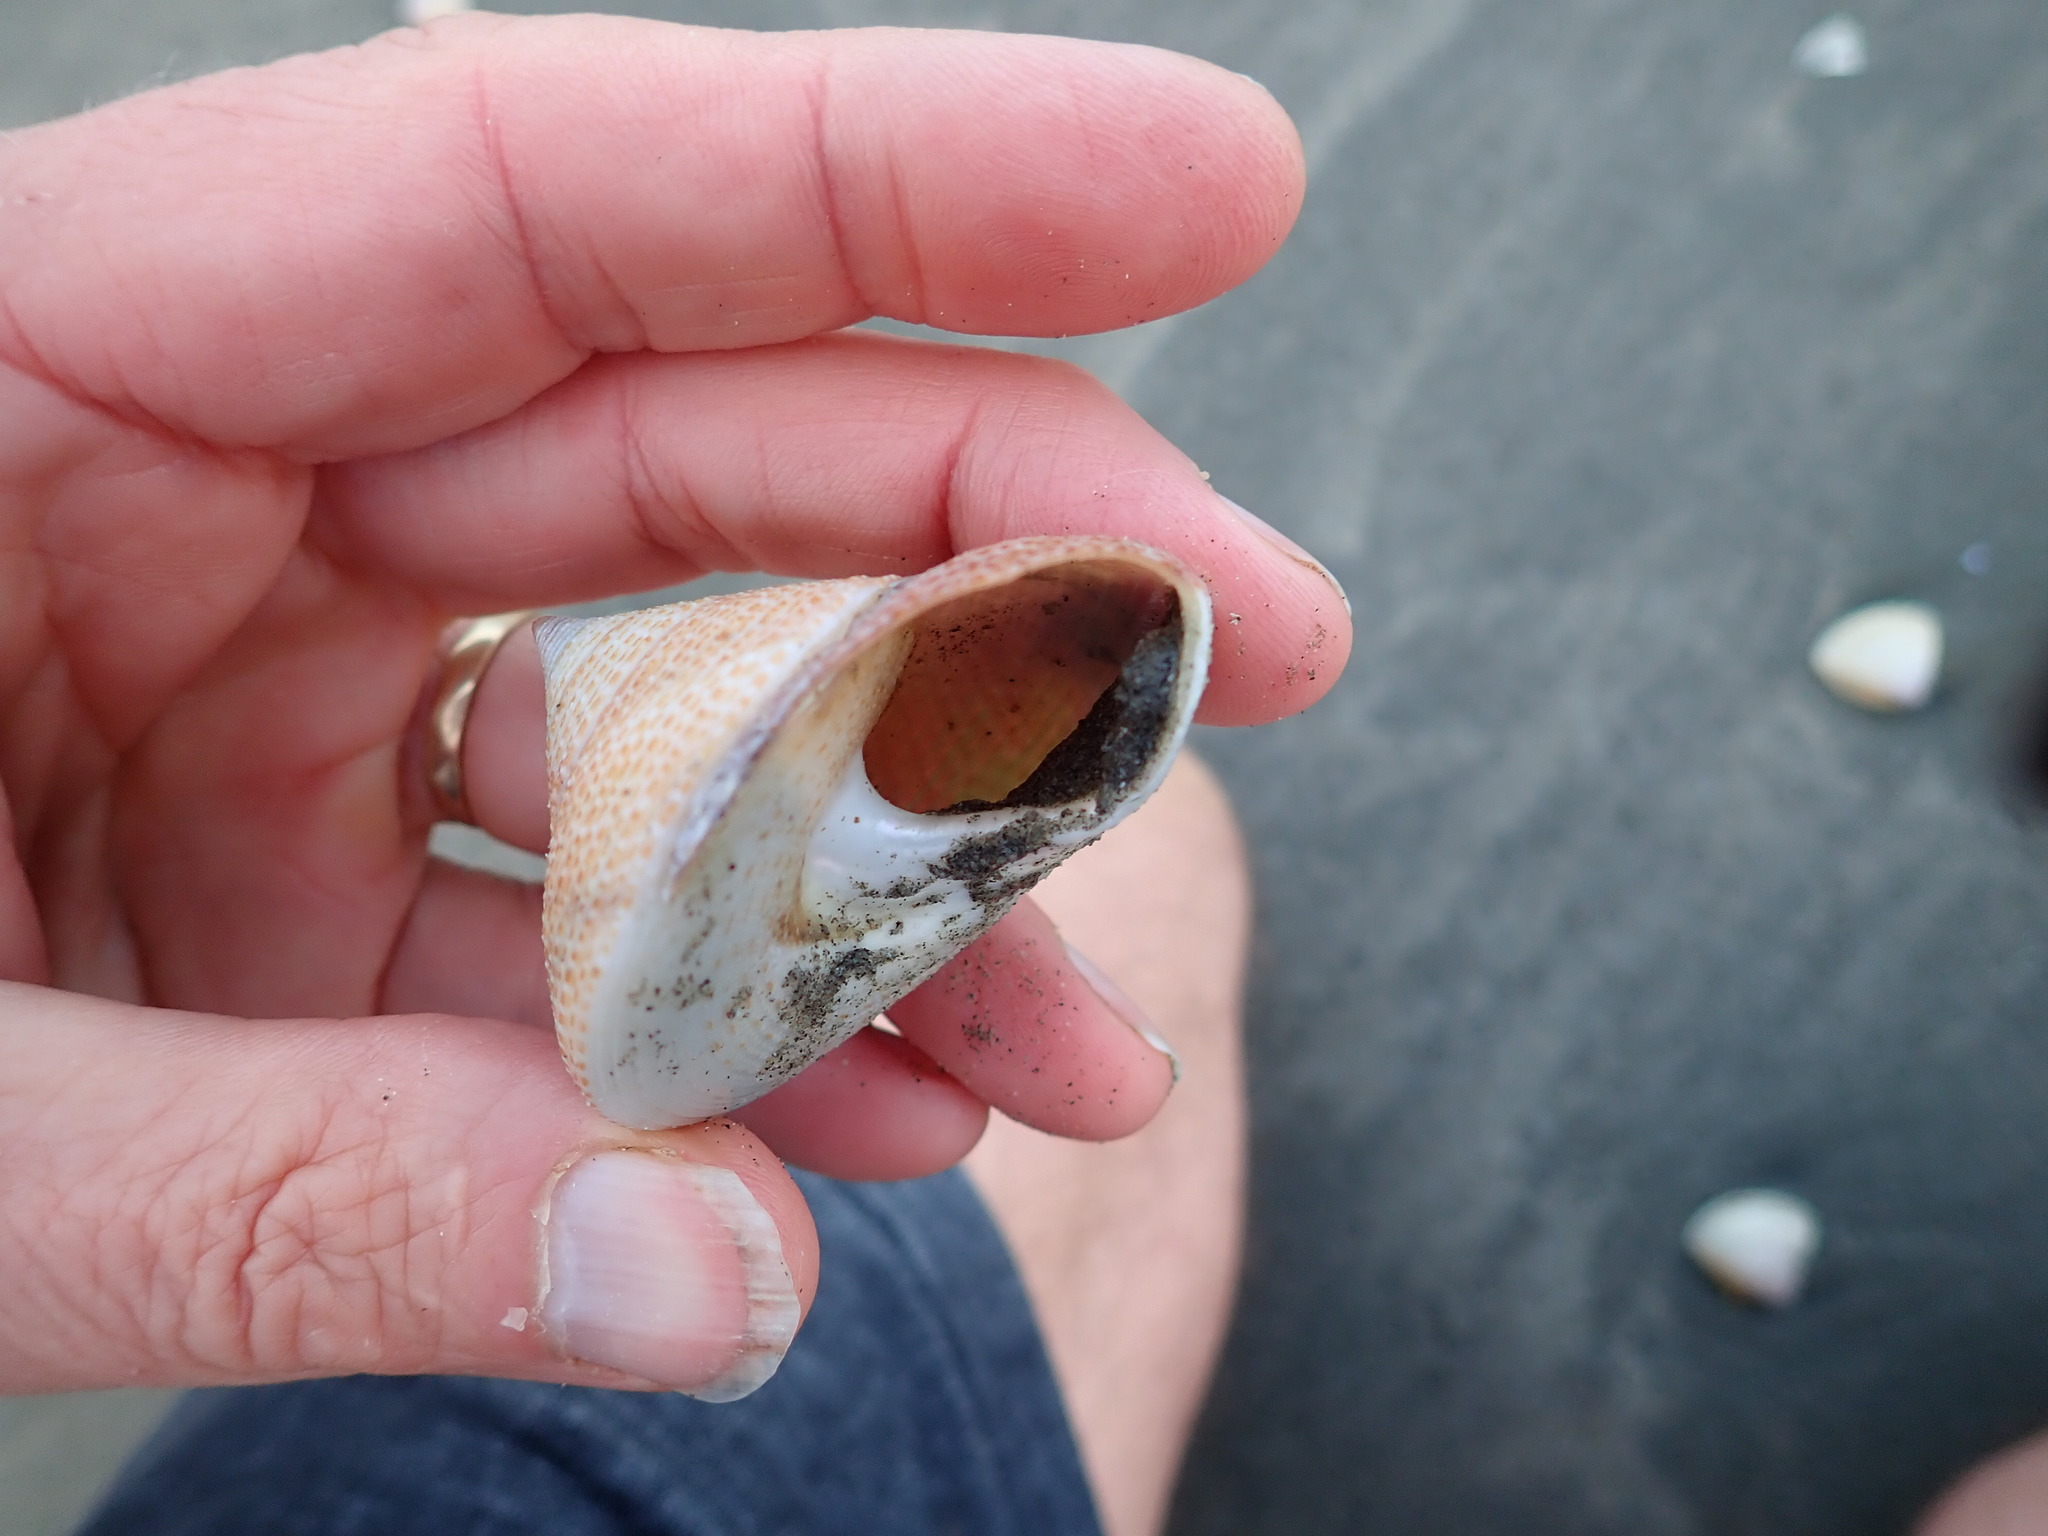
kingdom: Animalia
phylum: Mollusca
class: Gastropoda
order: Trochida
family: Calliostomatidae
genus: Maurea
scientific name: Maurea selecta
